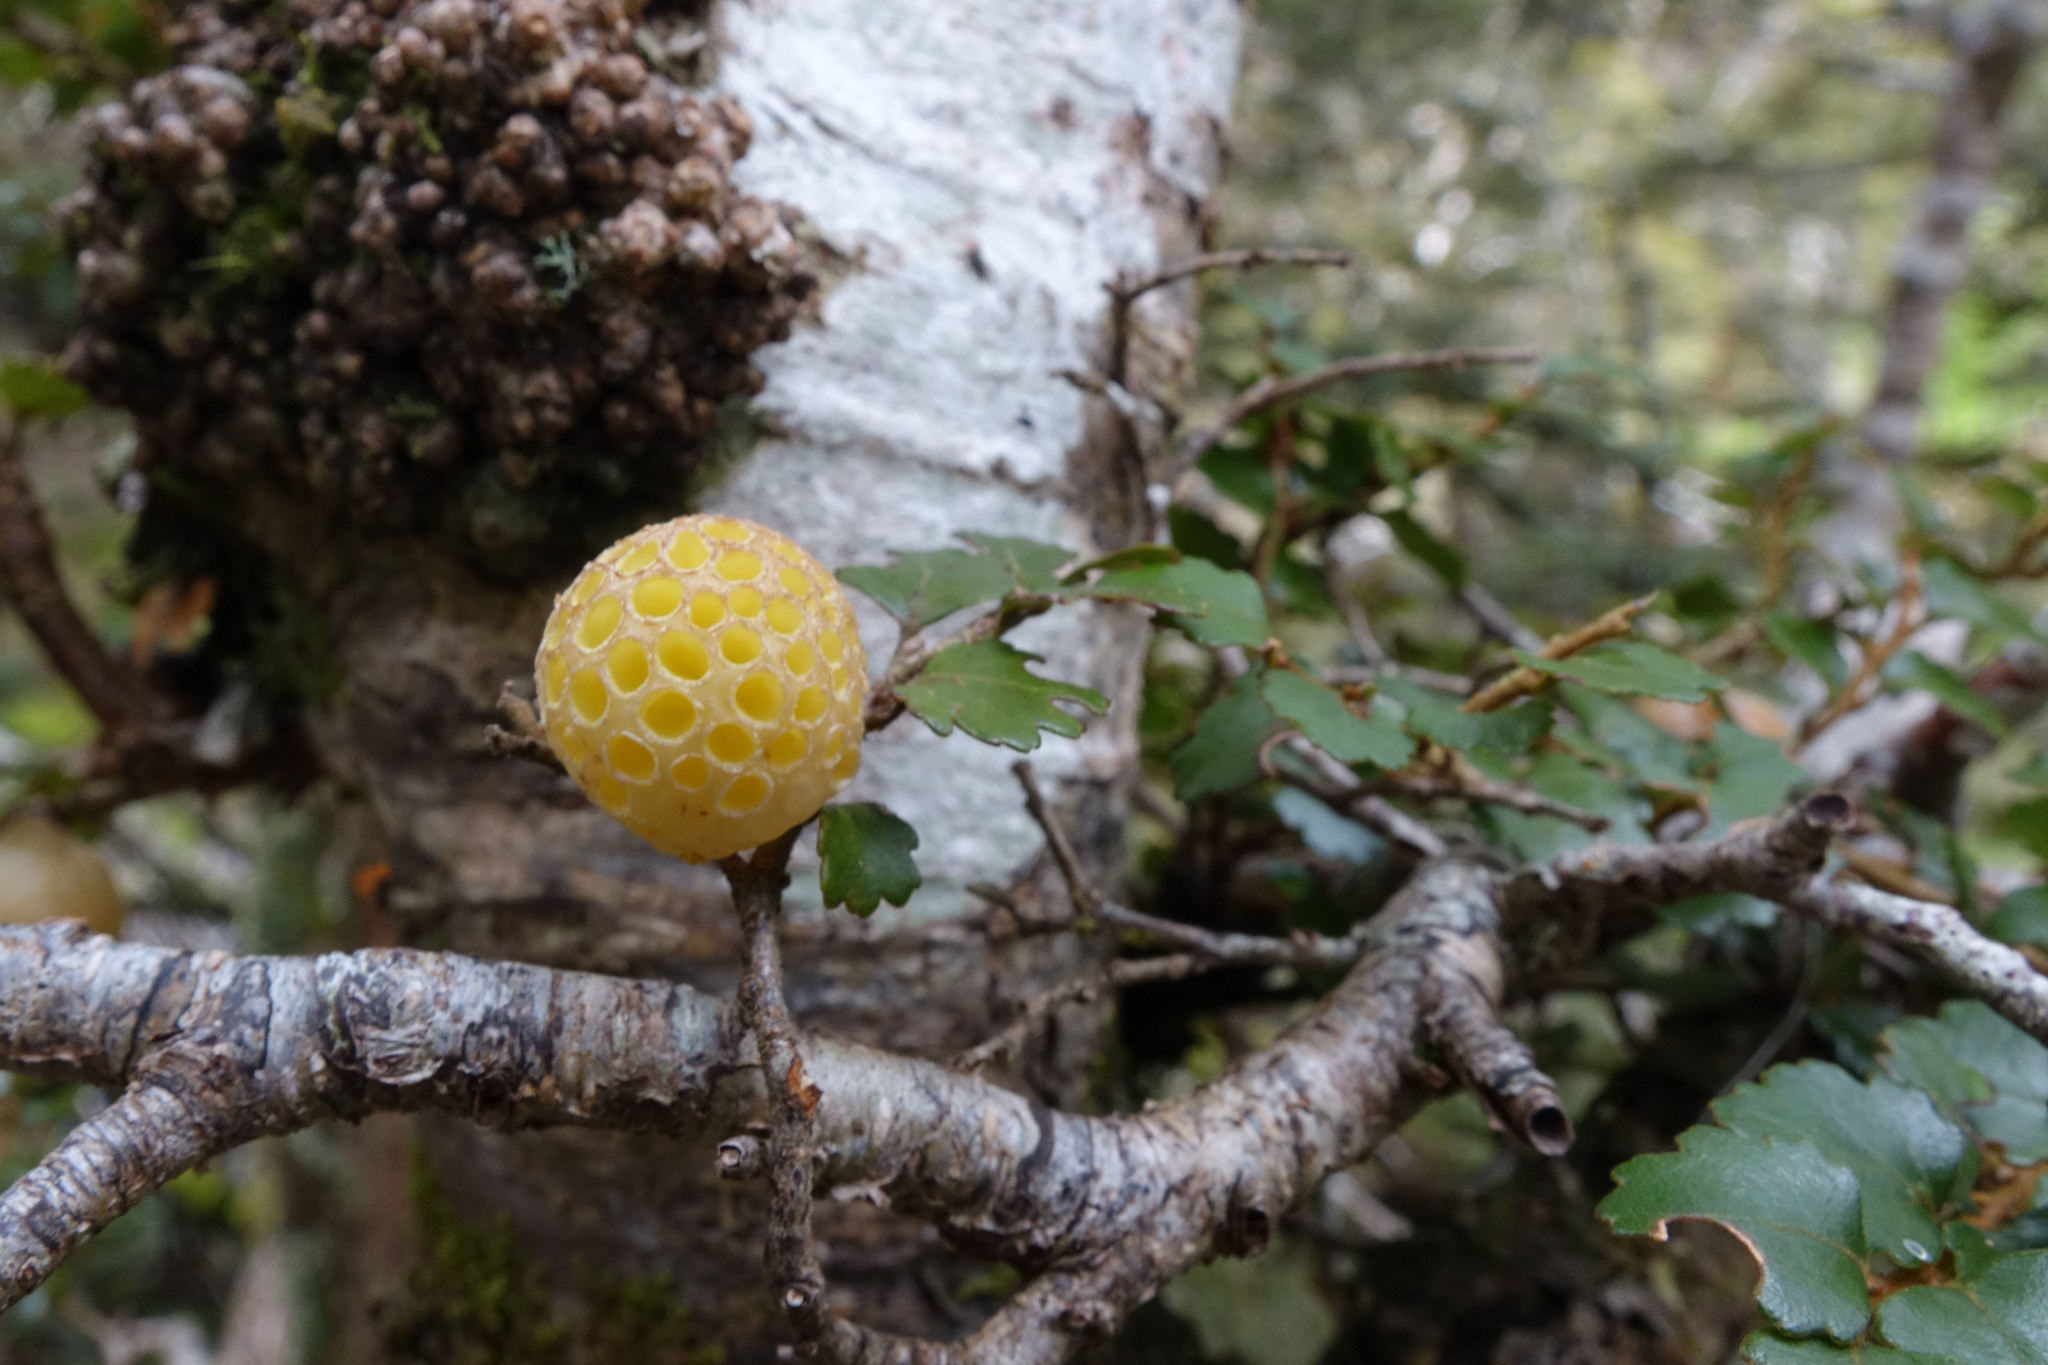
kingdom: Fungi
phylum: Ascomycota
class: Leotiomycetes
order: Cyttariales
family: Cyttariaceae
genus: Cyttaria
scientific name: Cyttaria gunnii
